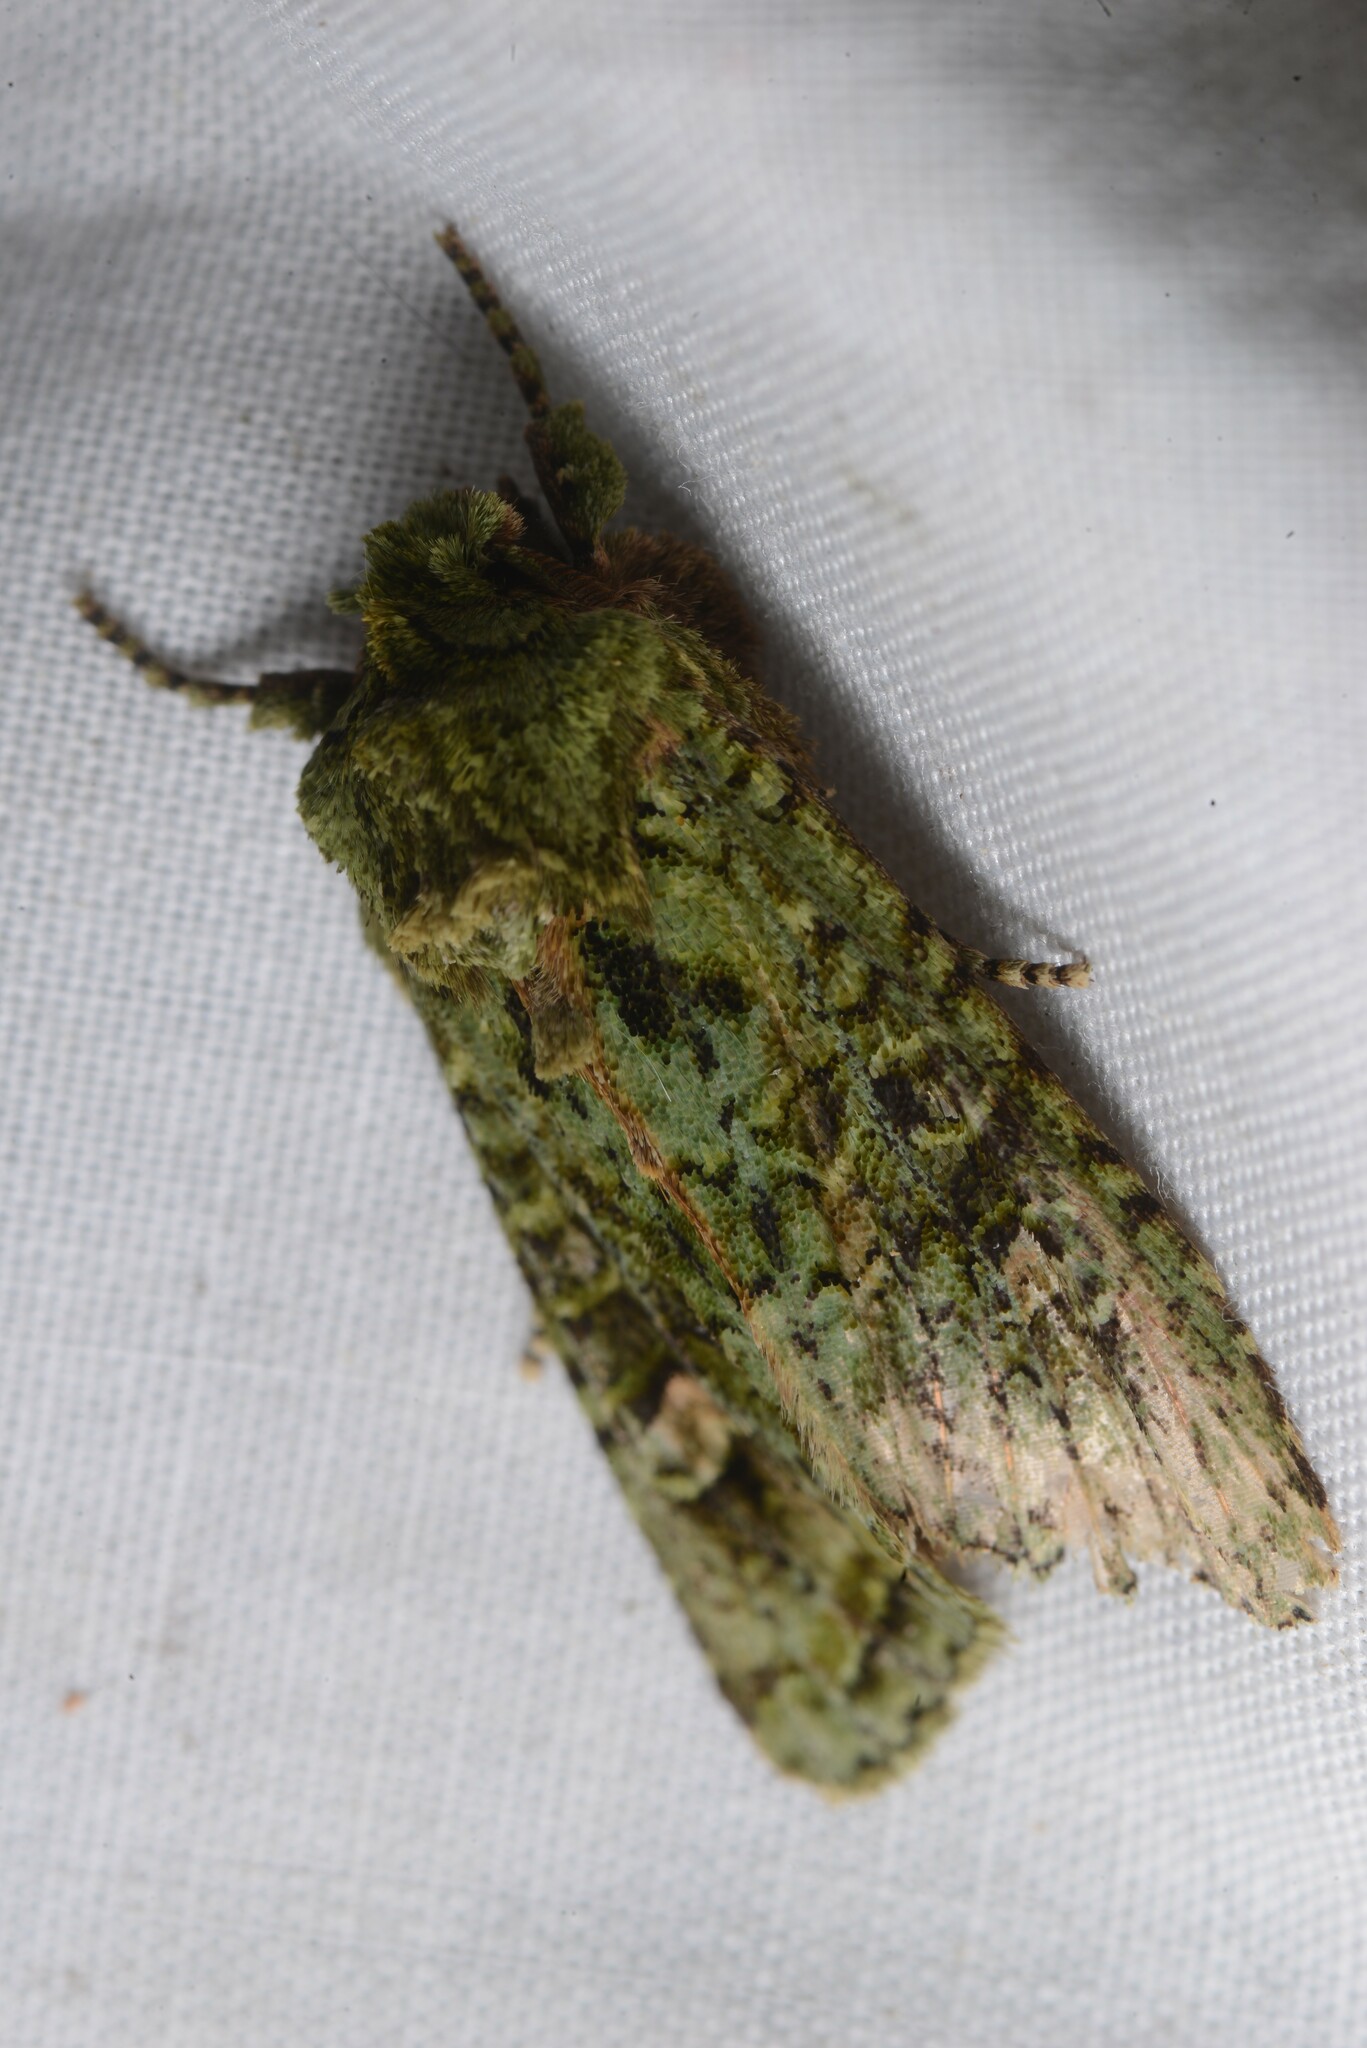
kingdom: Animalia
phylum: Arthropoda
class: Insecta
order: Lepidoptera
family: Noctuidae
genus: Ichneutica
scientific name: Ichneutica
